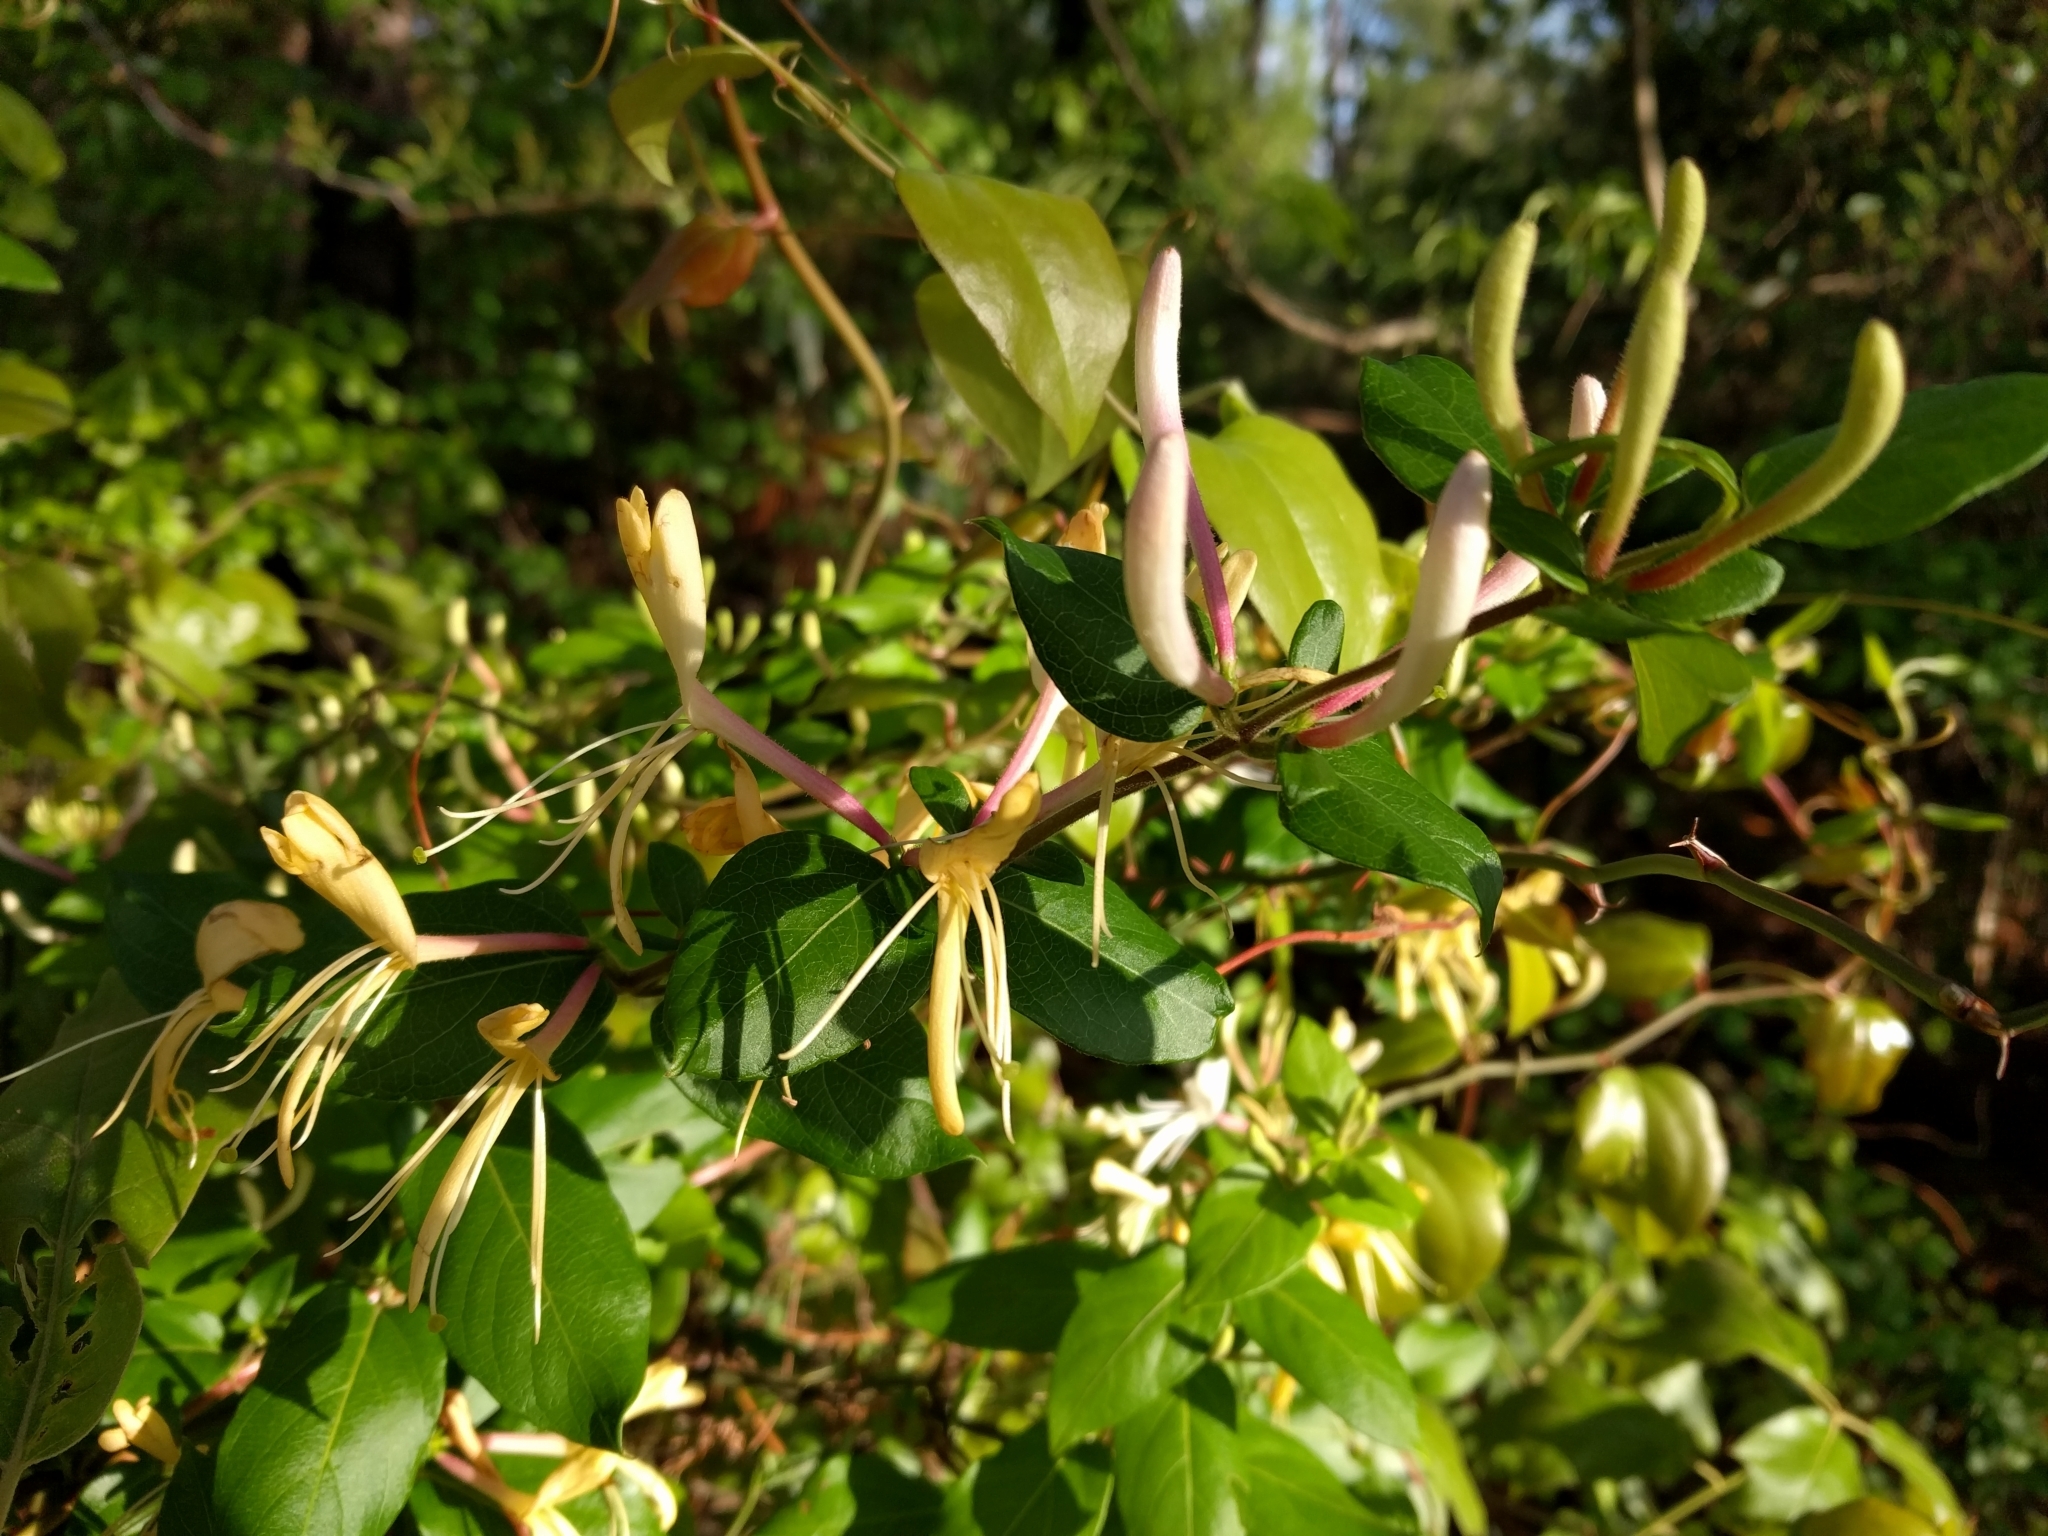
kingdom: Plantae
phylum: Tracheophyta
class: Magnoliopsida
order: Dipsacales
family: Caprifoliaceae
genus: Lonicera
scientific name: Lonicera japonica
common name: Japanese honeysuckle
